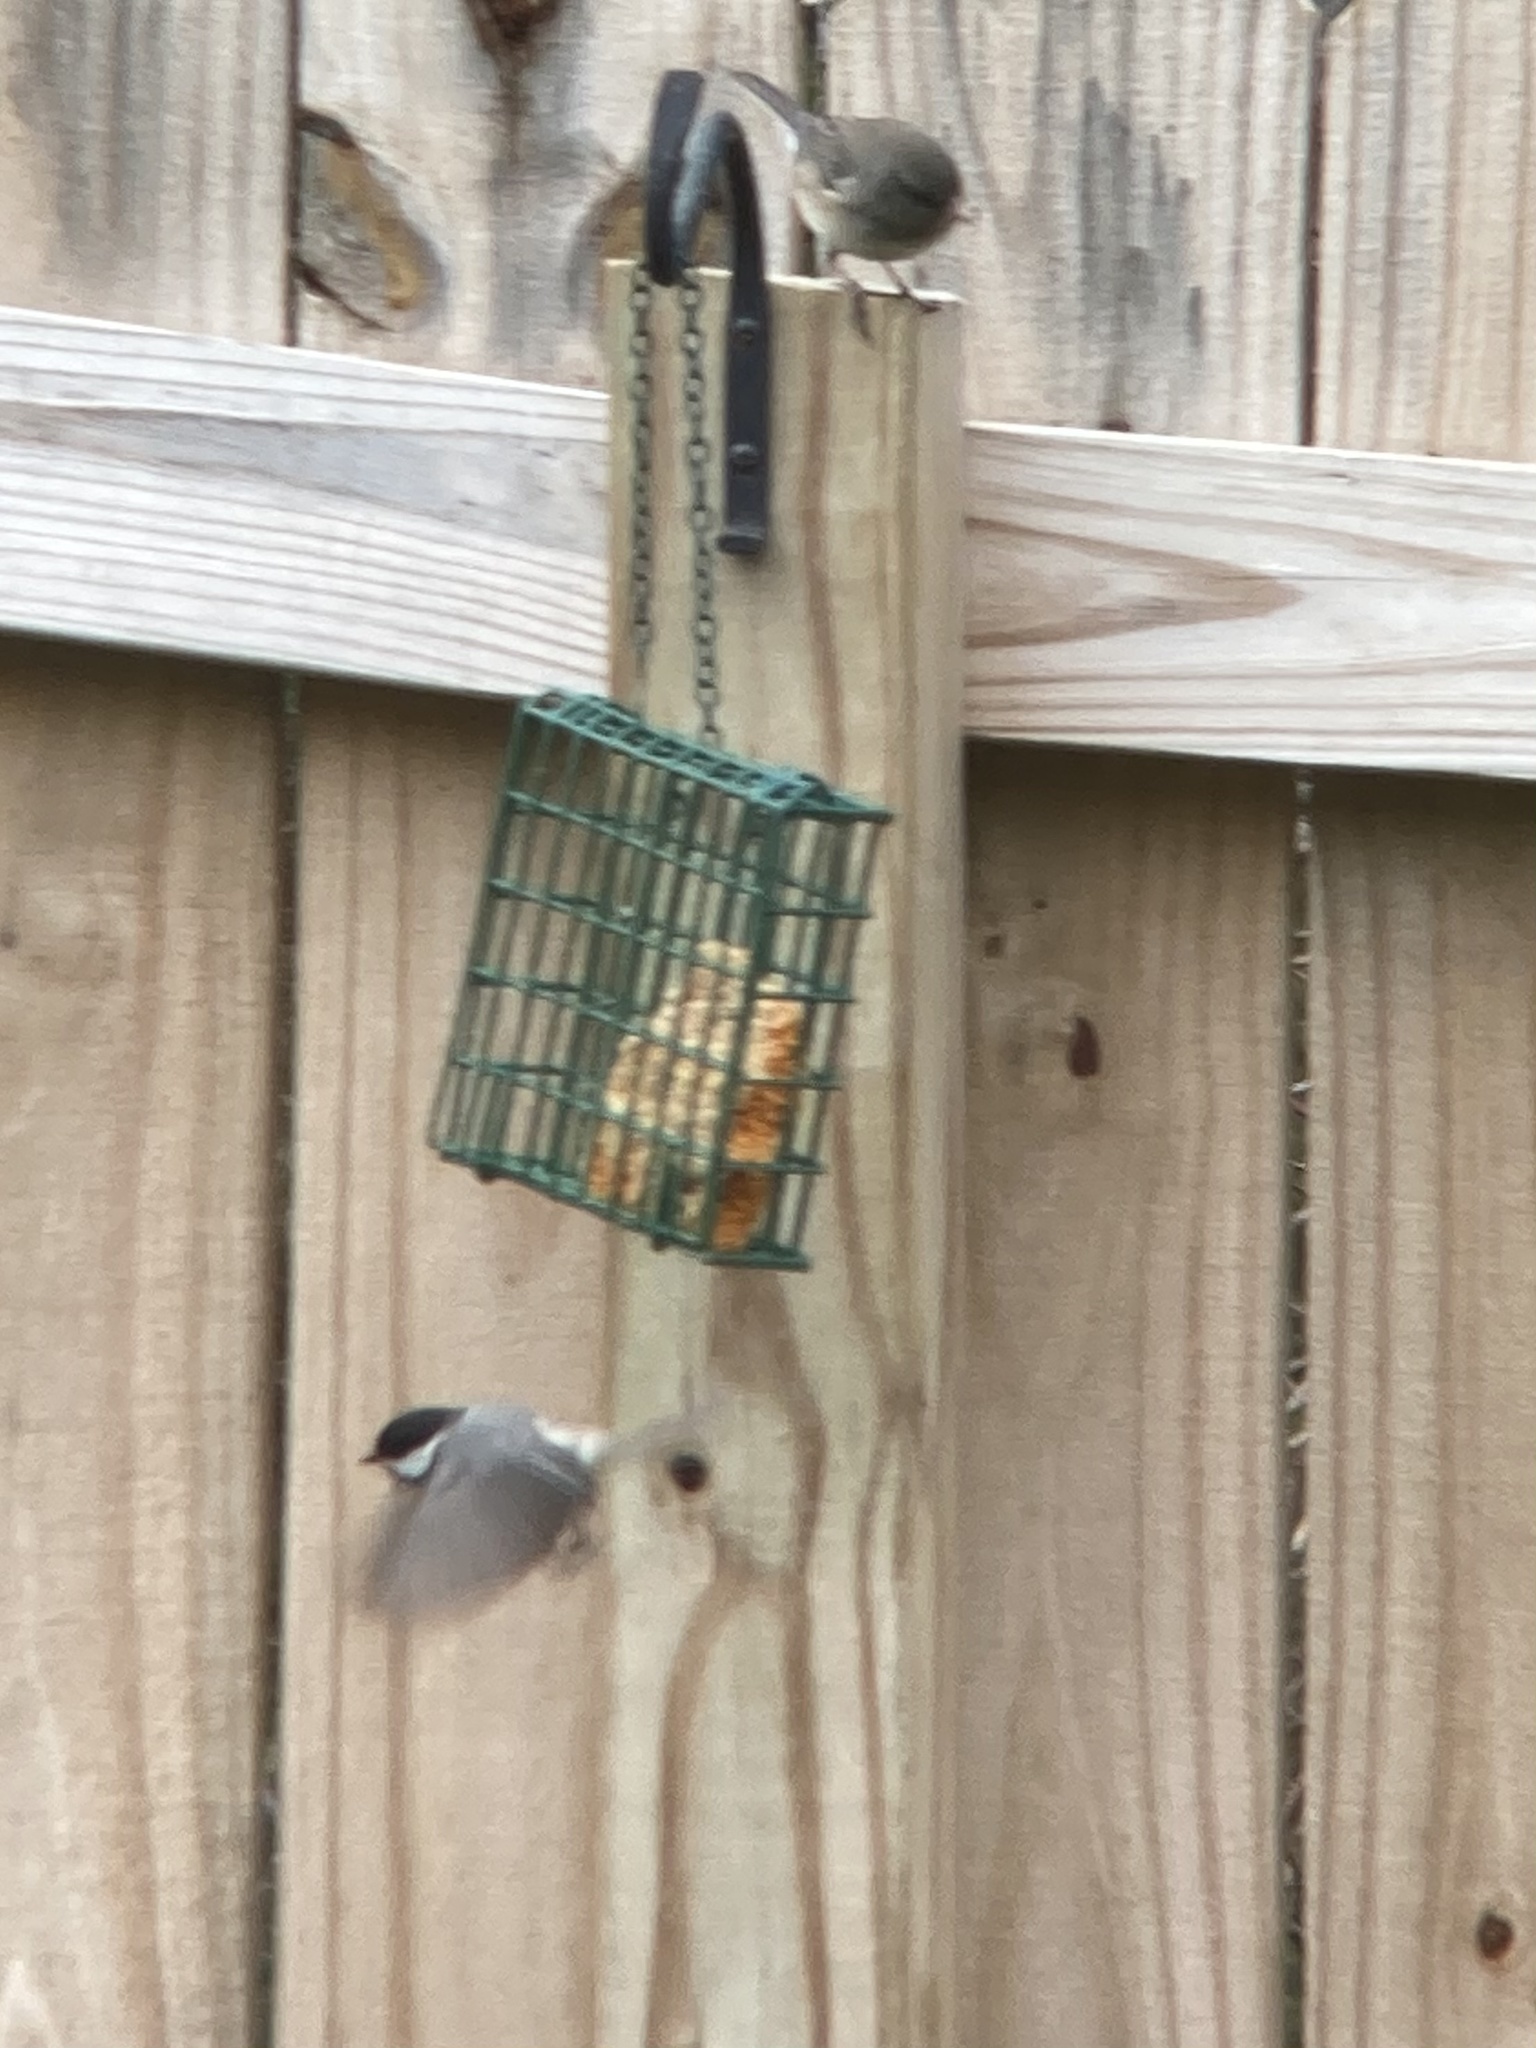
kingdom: Animalia
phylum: Chordata
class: Aves
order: Passeriformes
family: Paridae
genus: Poecile
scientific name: Poecile carolinensis
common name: Carolina chickadee
